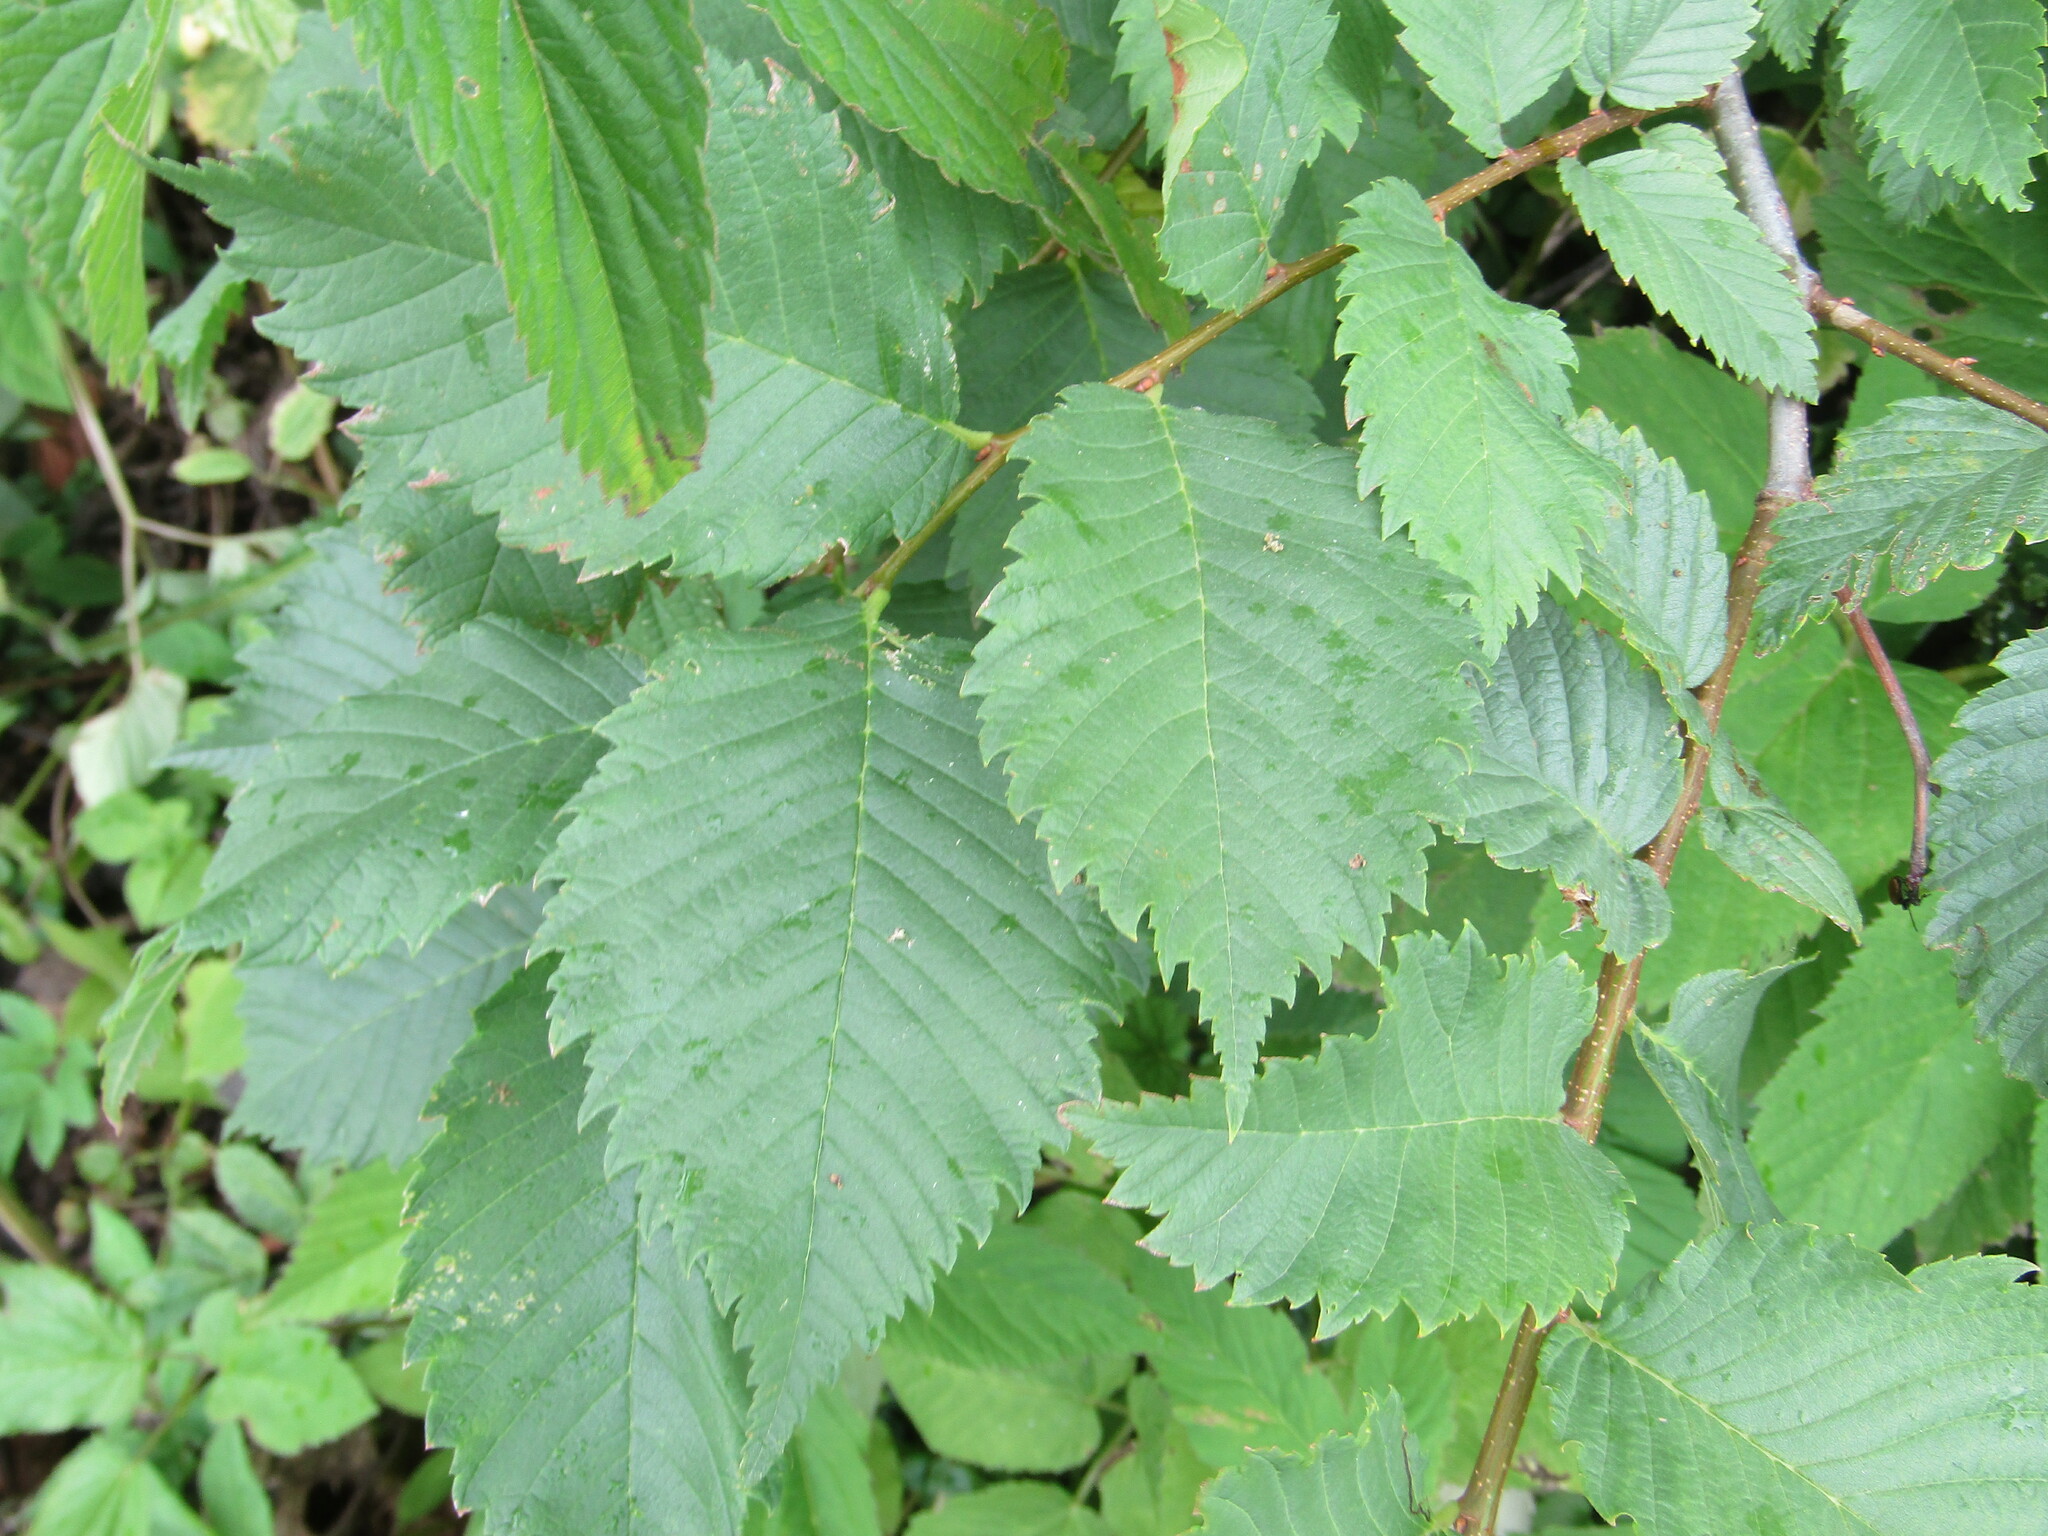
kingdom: Plantae
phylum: Tracheophyta
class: Magnoliopsida
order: Rosales
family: Ulmaceae
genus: Ulmus
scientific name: Ulmus laevis
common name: European white-elm
